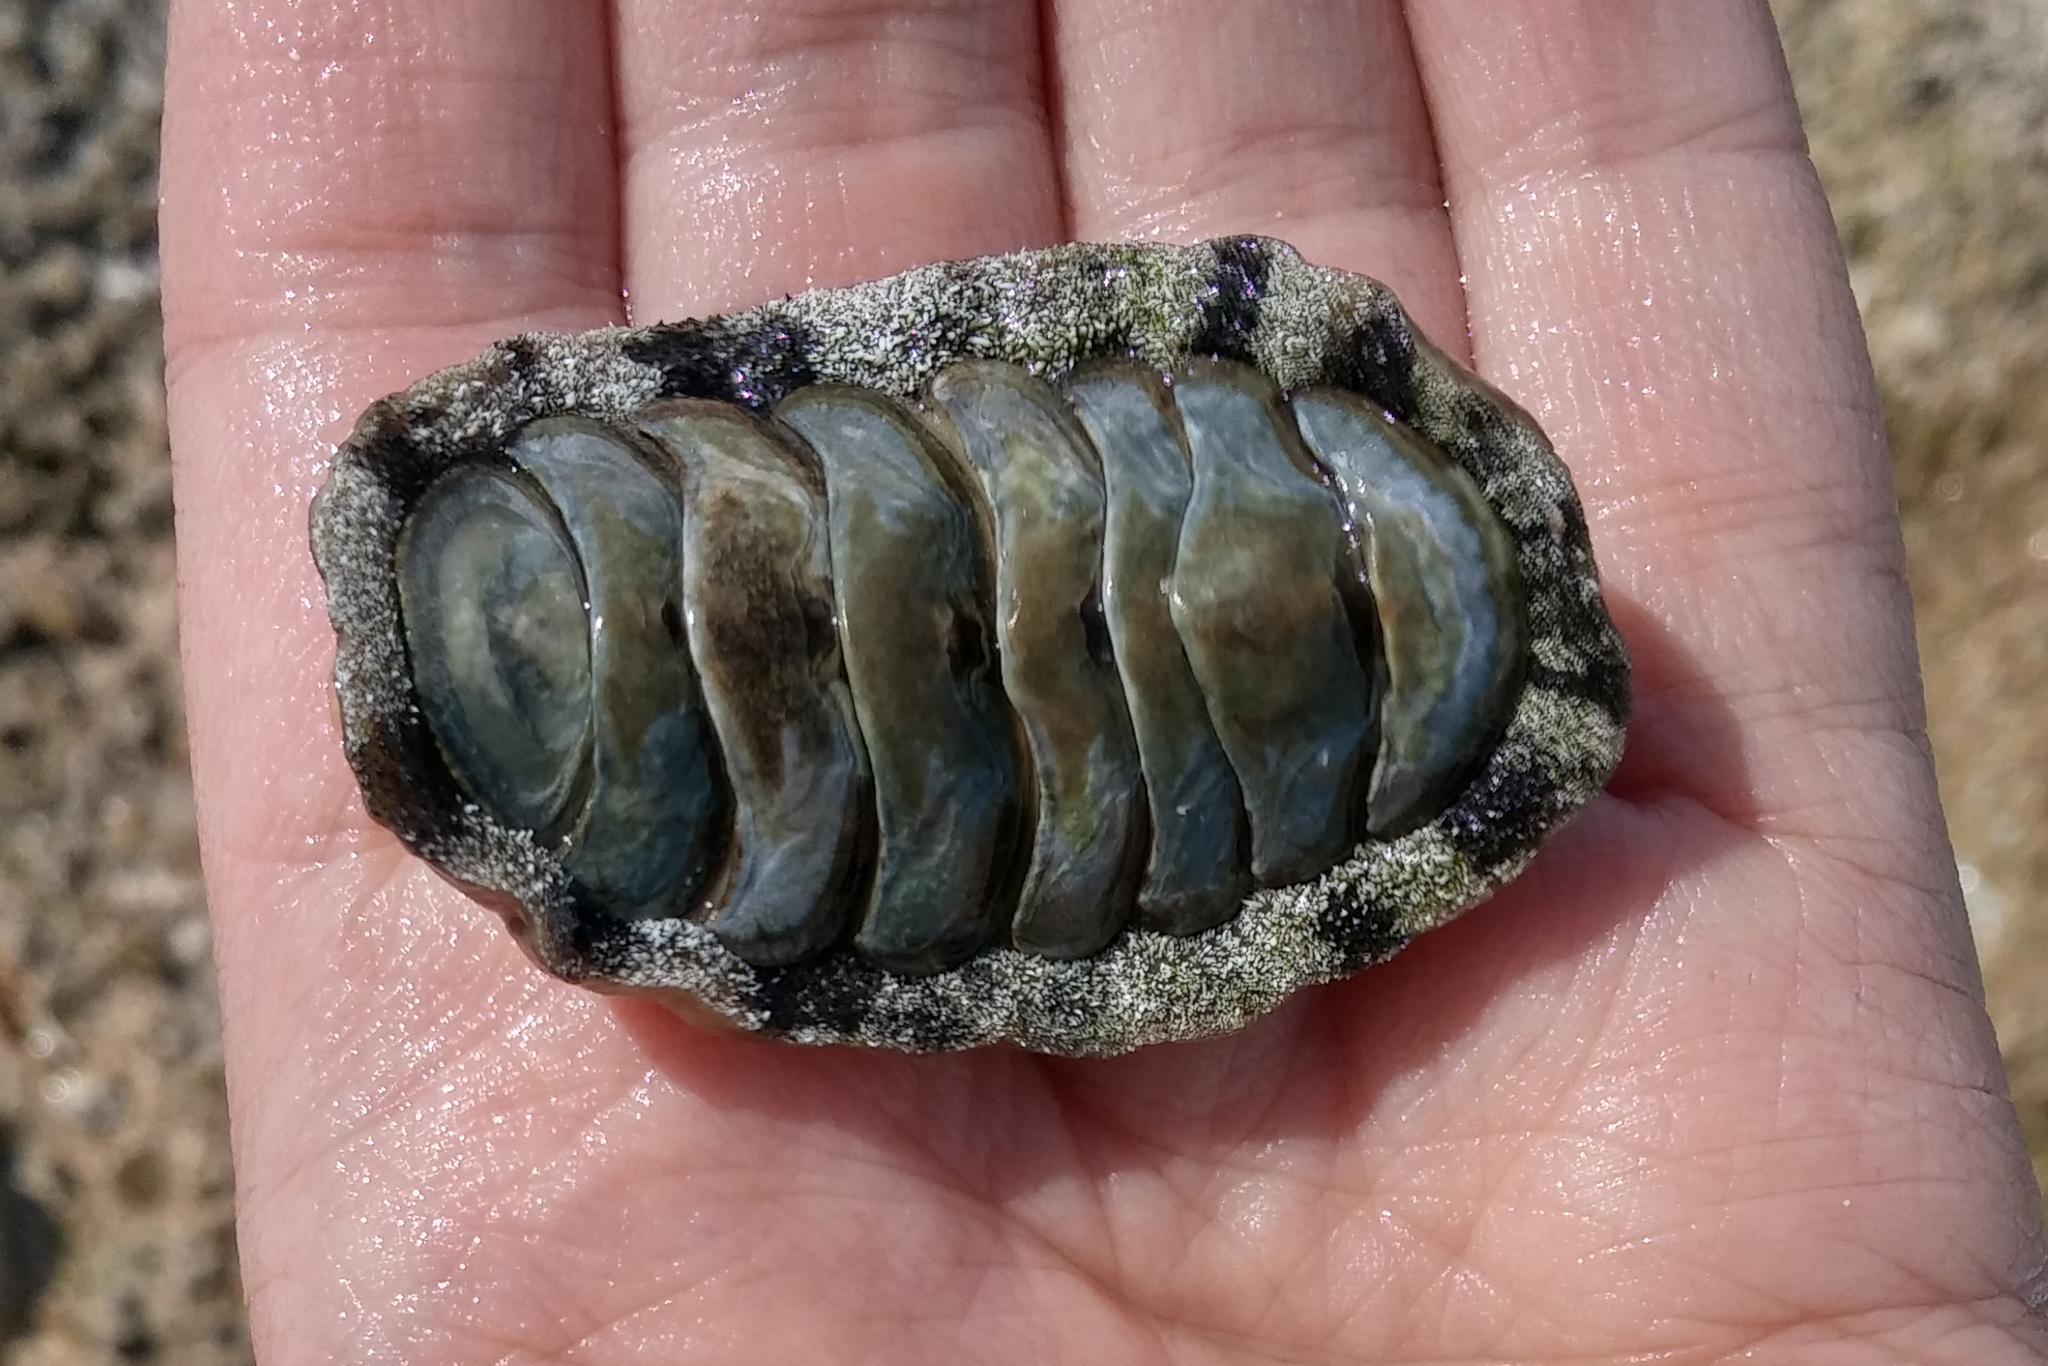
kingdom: Animalia
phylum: Mollusca
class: Polyplacophora
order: Chitonida
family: Chitonidae
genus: Acanthopleura
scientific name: Acanthopleura granulata
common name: West indian fuzzy chiton
